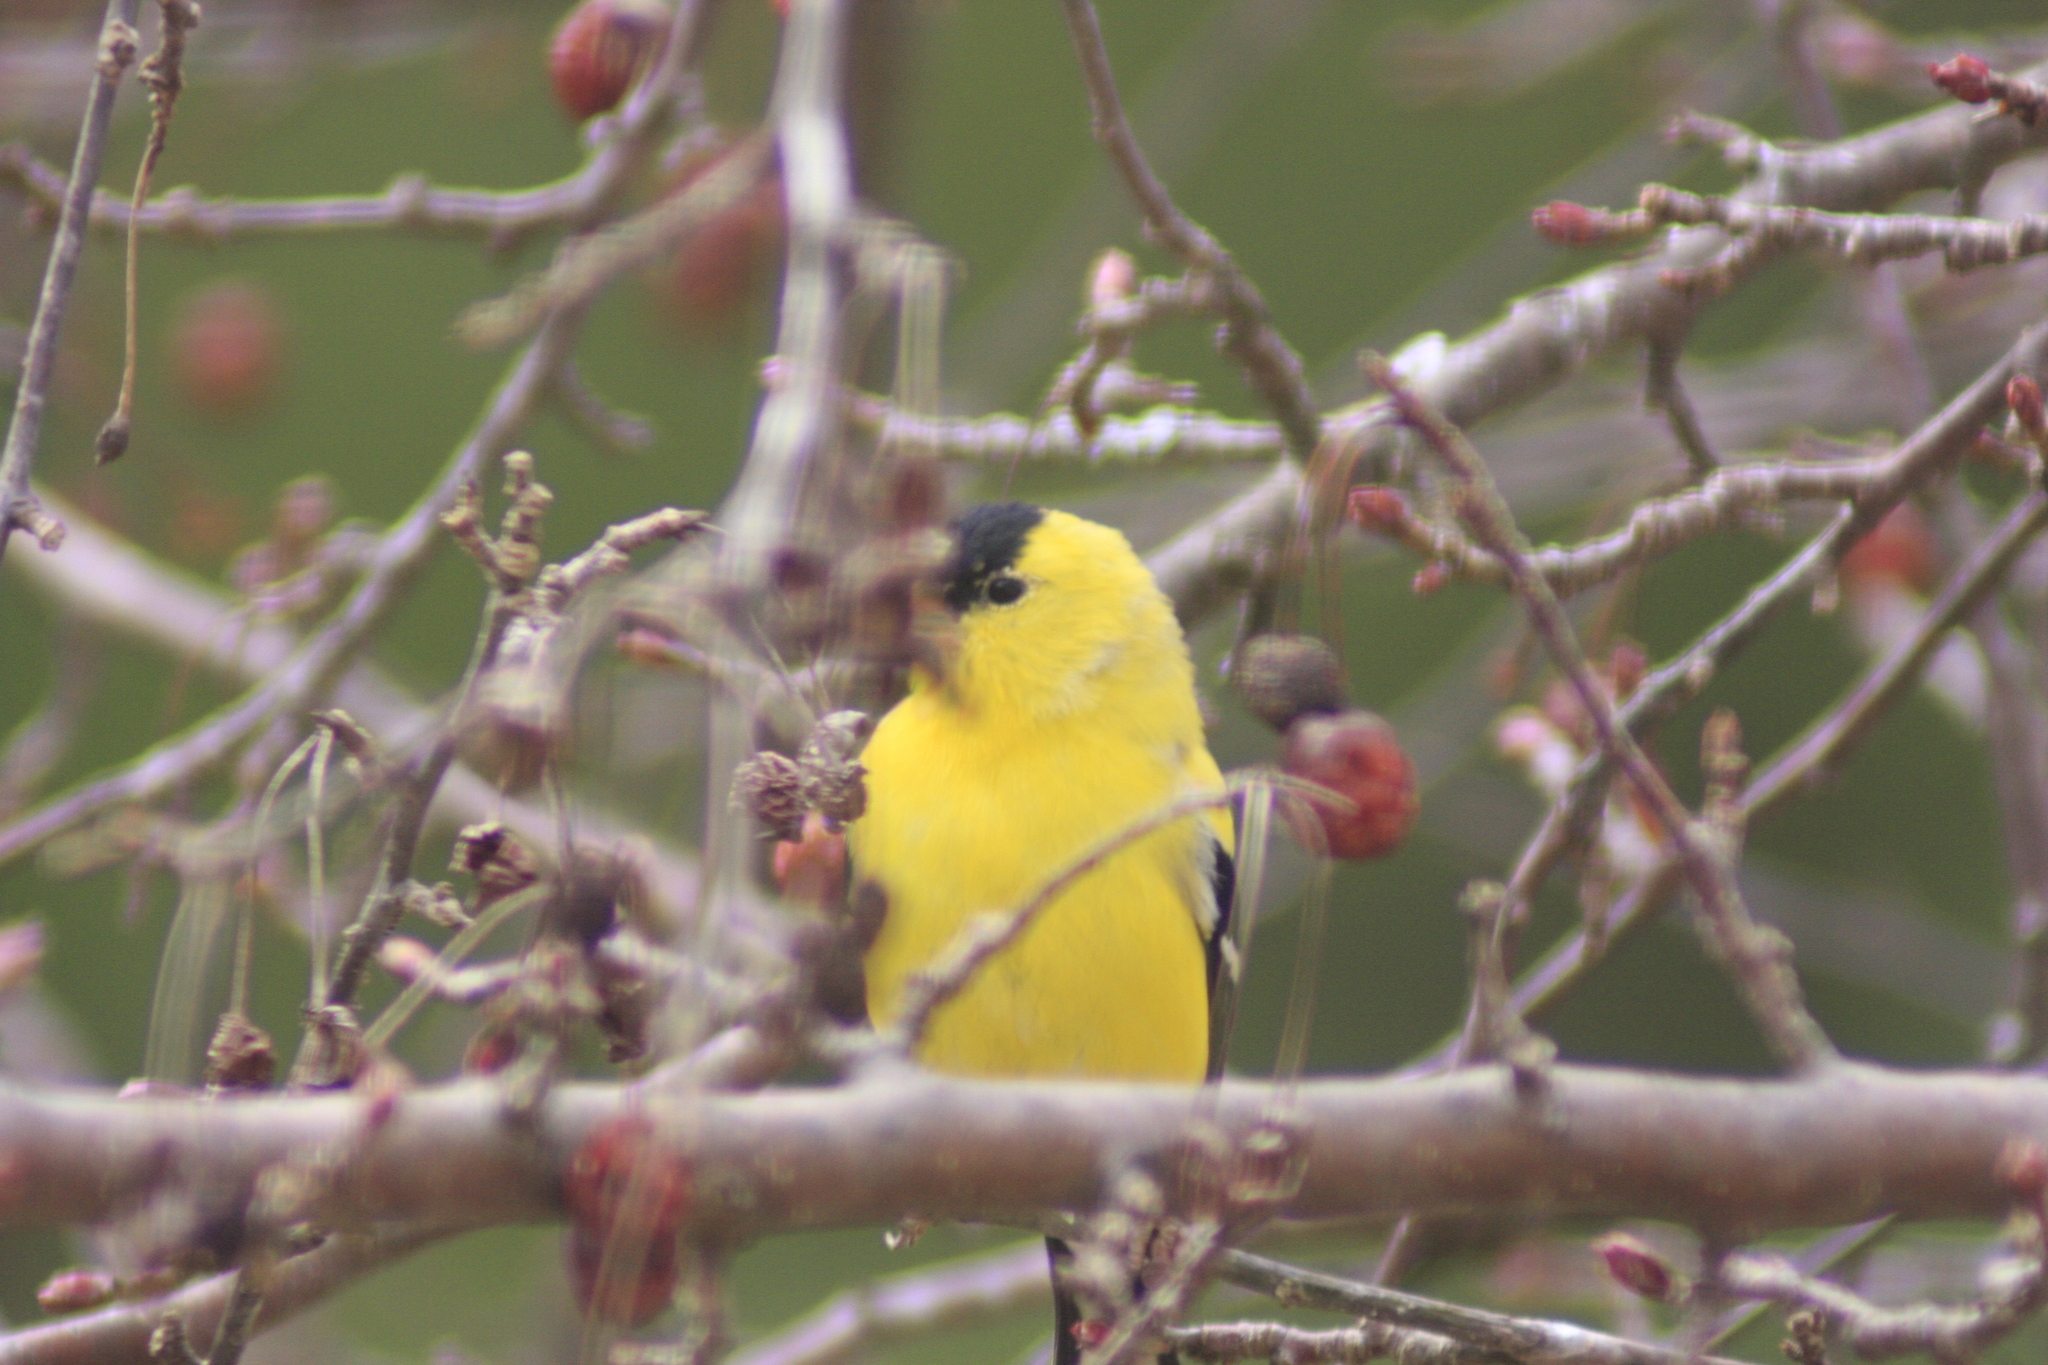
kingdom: Animalia
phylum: Chordata
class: Aves
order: Passeriformes
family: Fringillidae
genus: Spinus
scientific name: Spinus tristis
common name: American goldfinch
